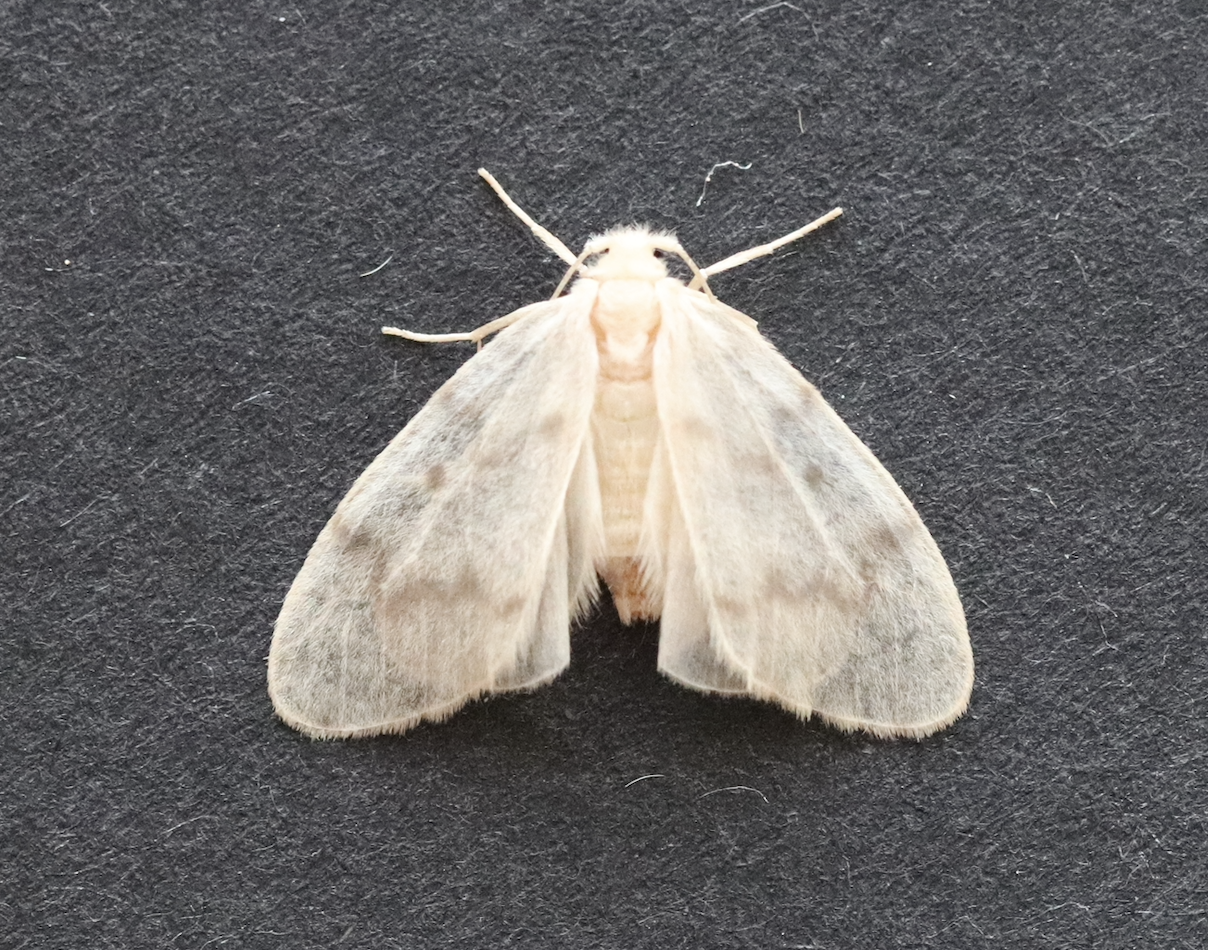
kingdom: Animalia
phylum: Arthropoda
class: Insecta
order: Lepidoptera
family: Erebidae
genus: Nudaria
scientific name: Nudaria mundana
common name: Muslin footman
